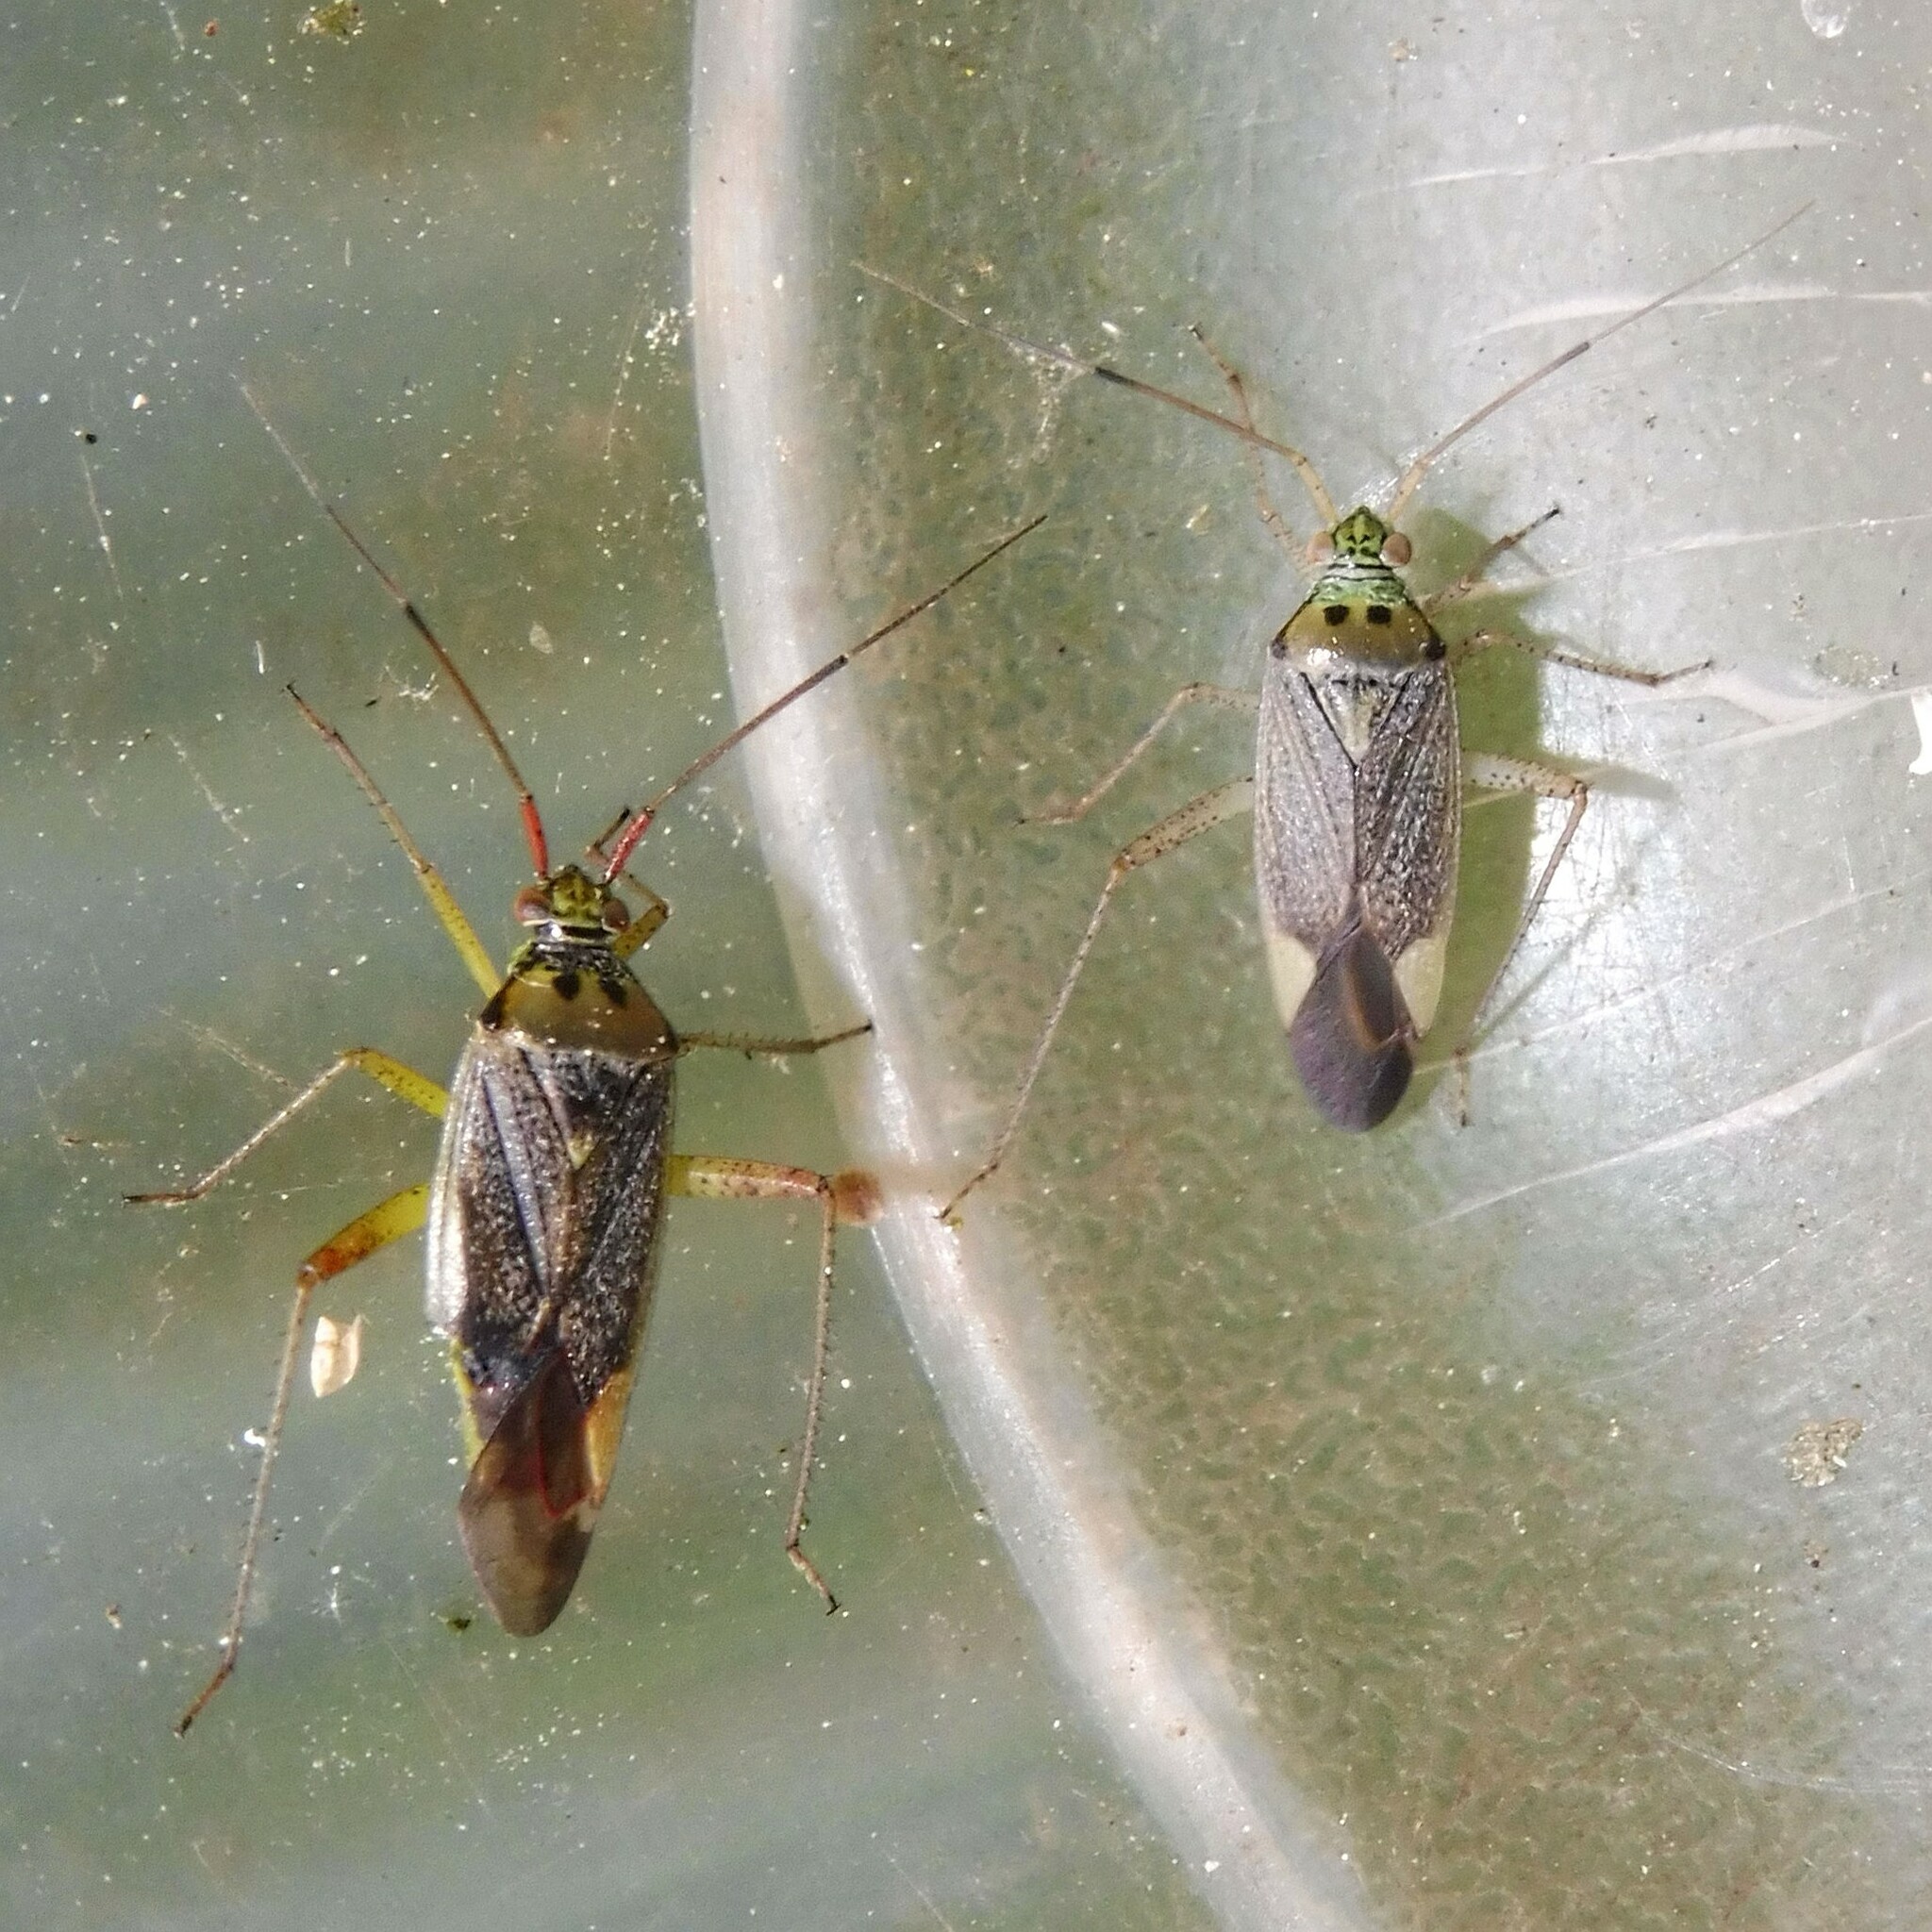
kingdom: Animalia
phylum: Arthropoda
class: Insecta
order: Hemiptera
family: Miridae
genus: Closterotomus
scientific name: Closterotomus trivialis
